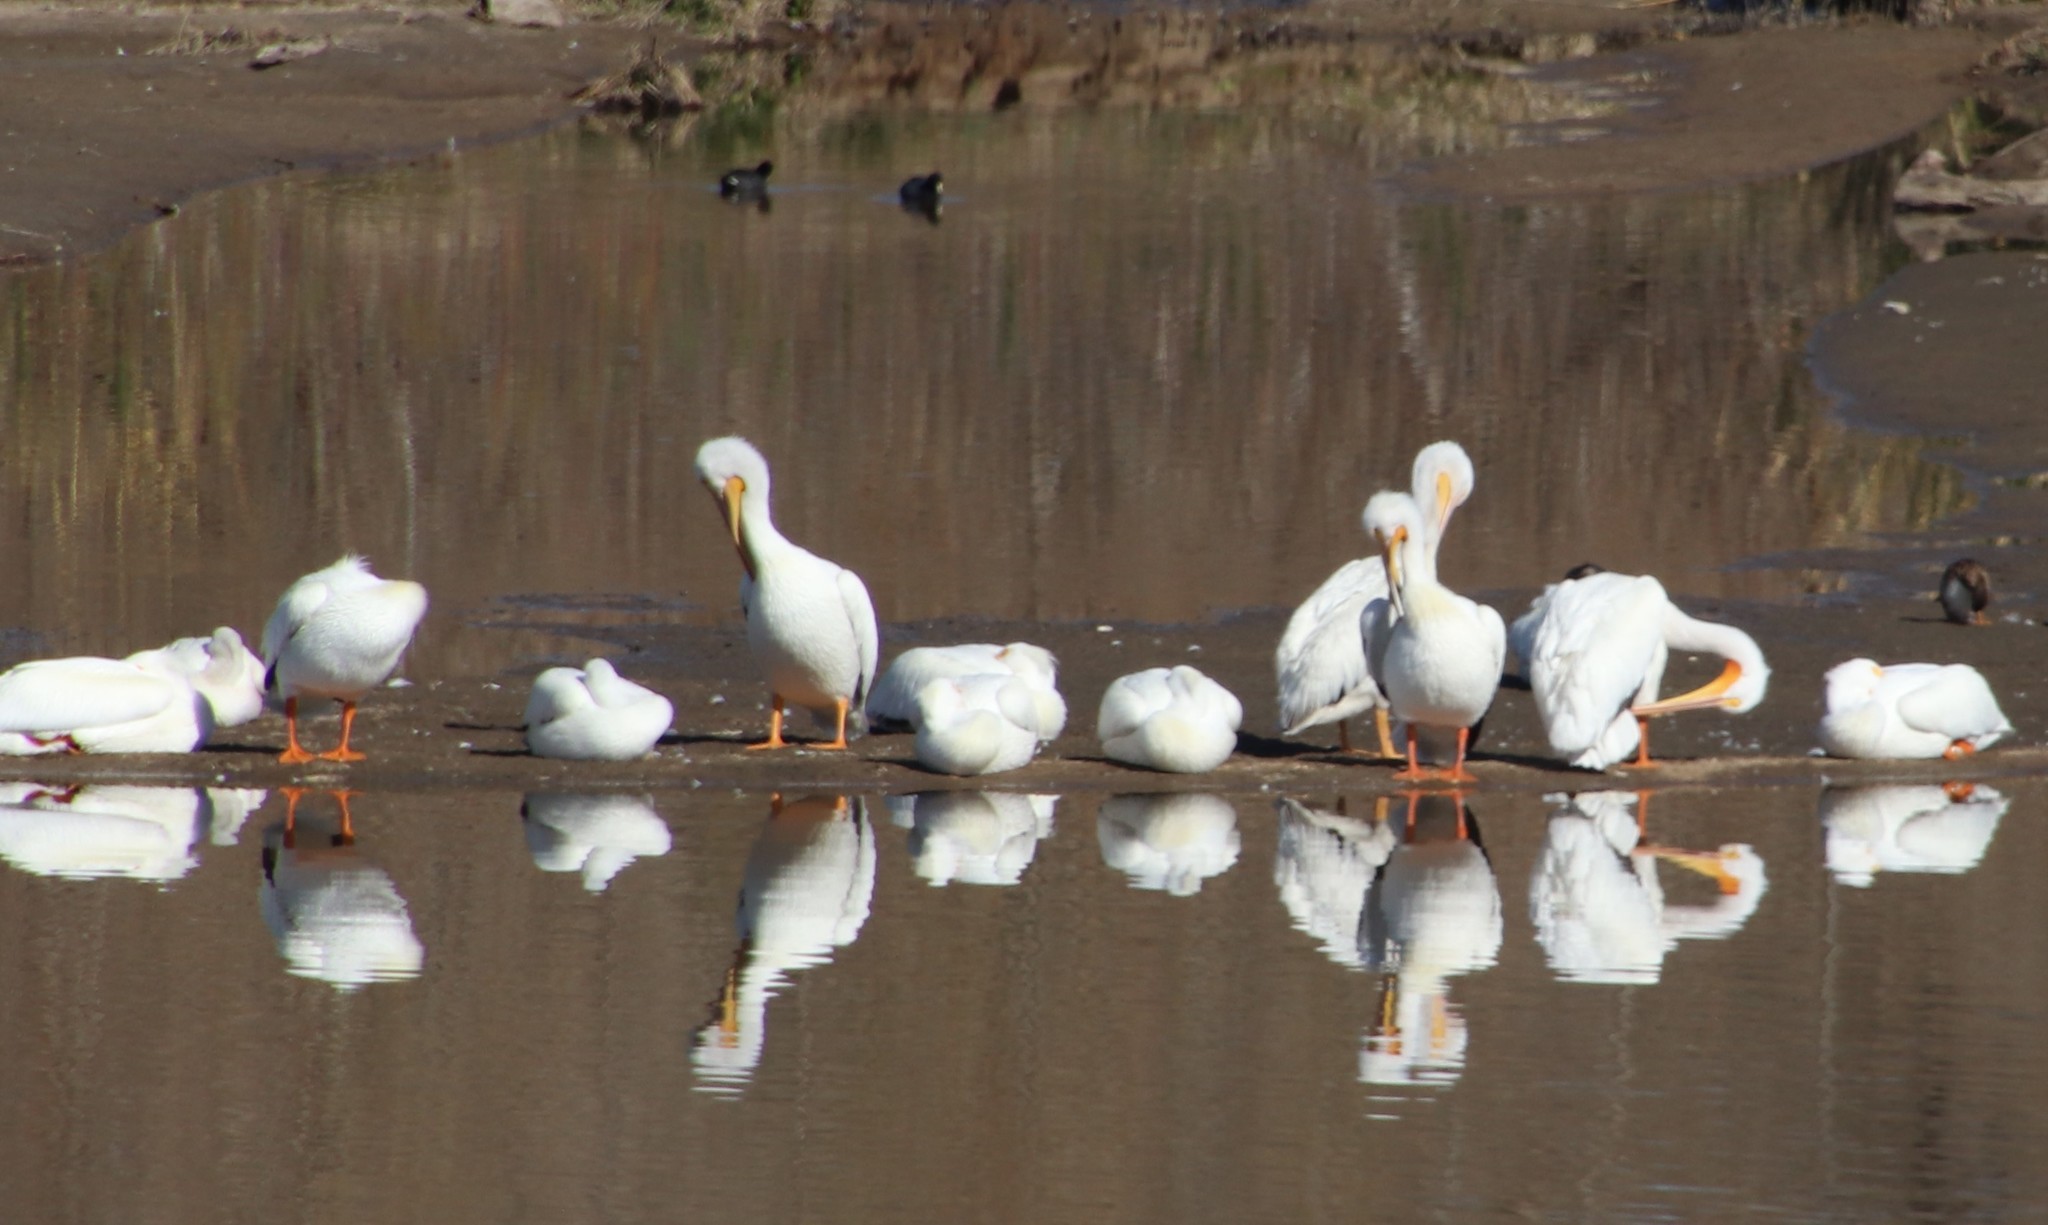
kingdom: Animalia
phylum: Chordata
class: Aves
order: Pelecaniformes
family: Pelecanidae
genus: Pelecanus
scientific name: Pelecanus erythrorhynchos
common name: American white pelican
